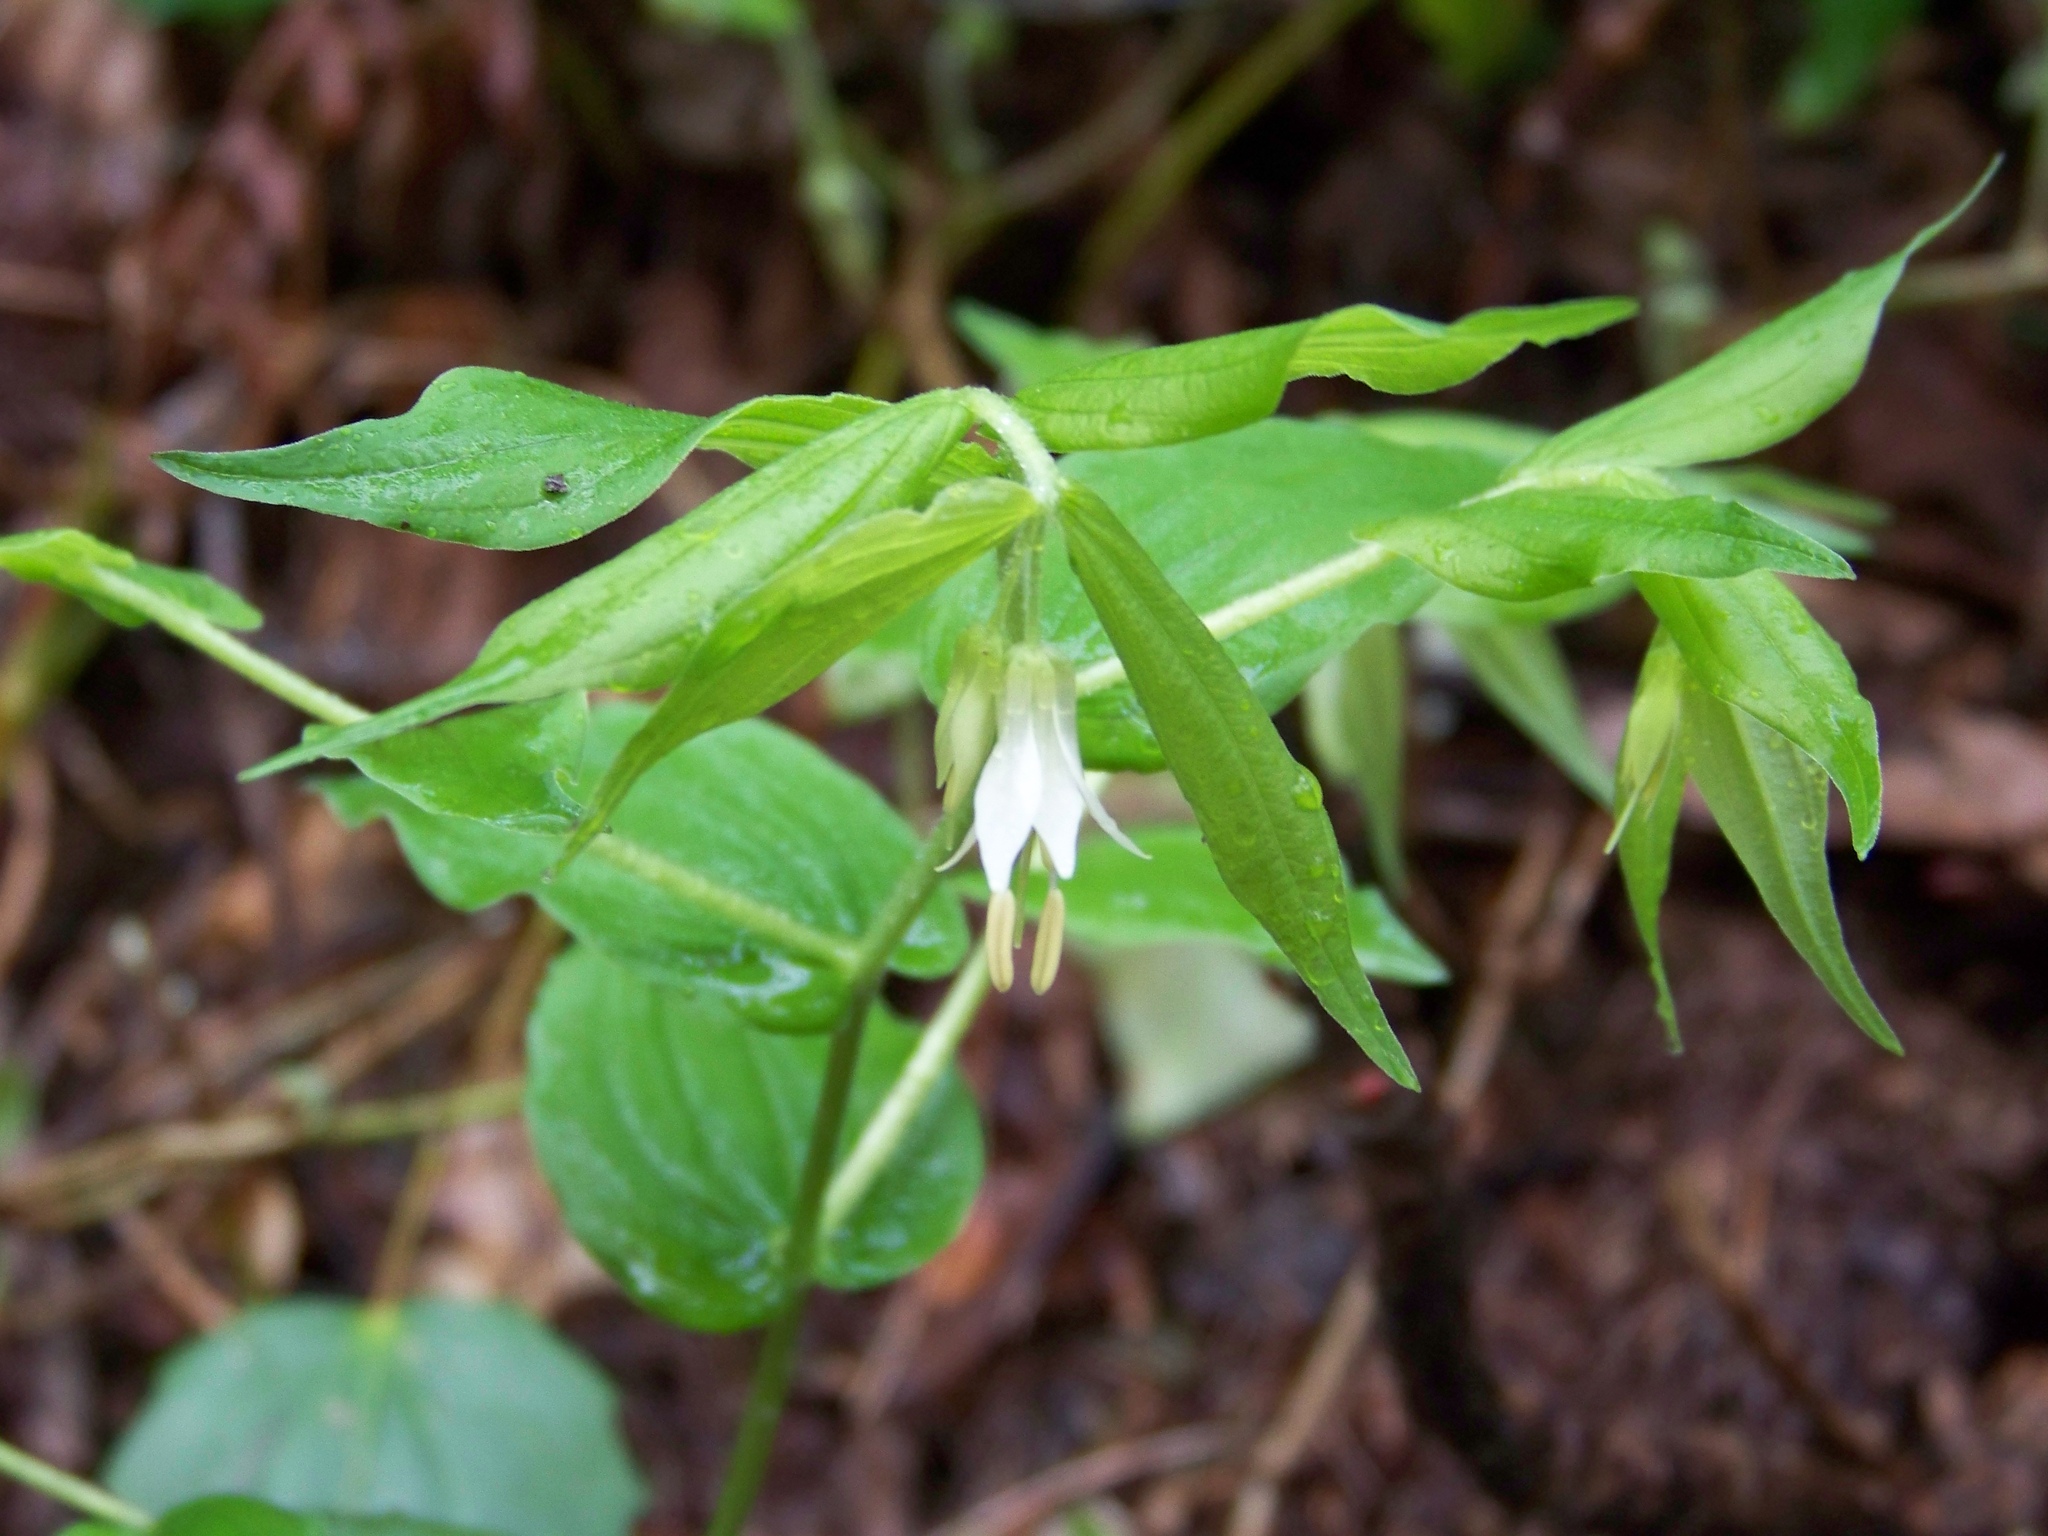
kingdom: Plantae
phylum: Tracheophyta
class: Liliopsida
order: Liliales
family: Liliaceae
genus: Prosartes
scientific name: Prosartes hookeri
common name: Fairy-bells
